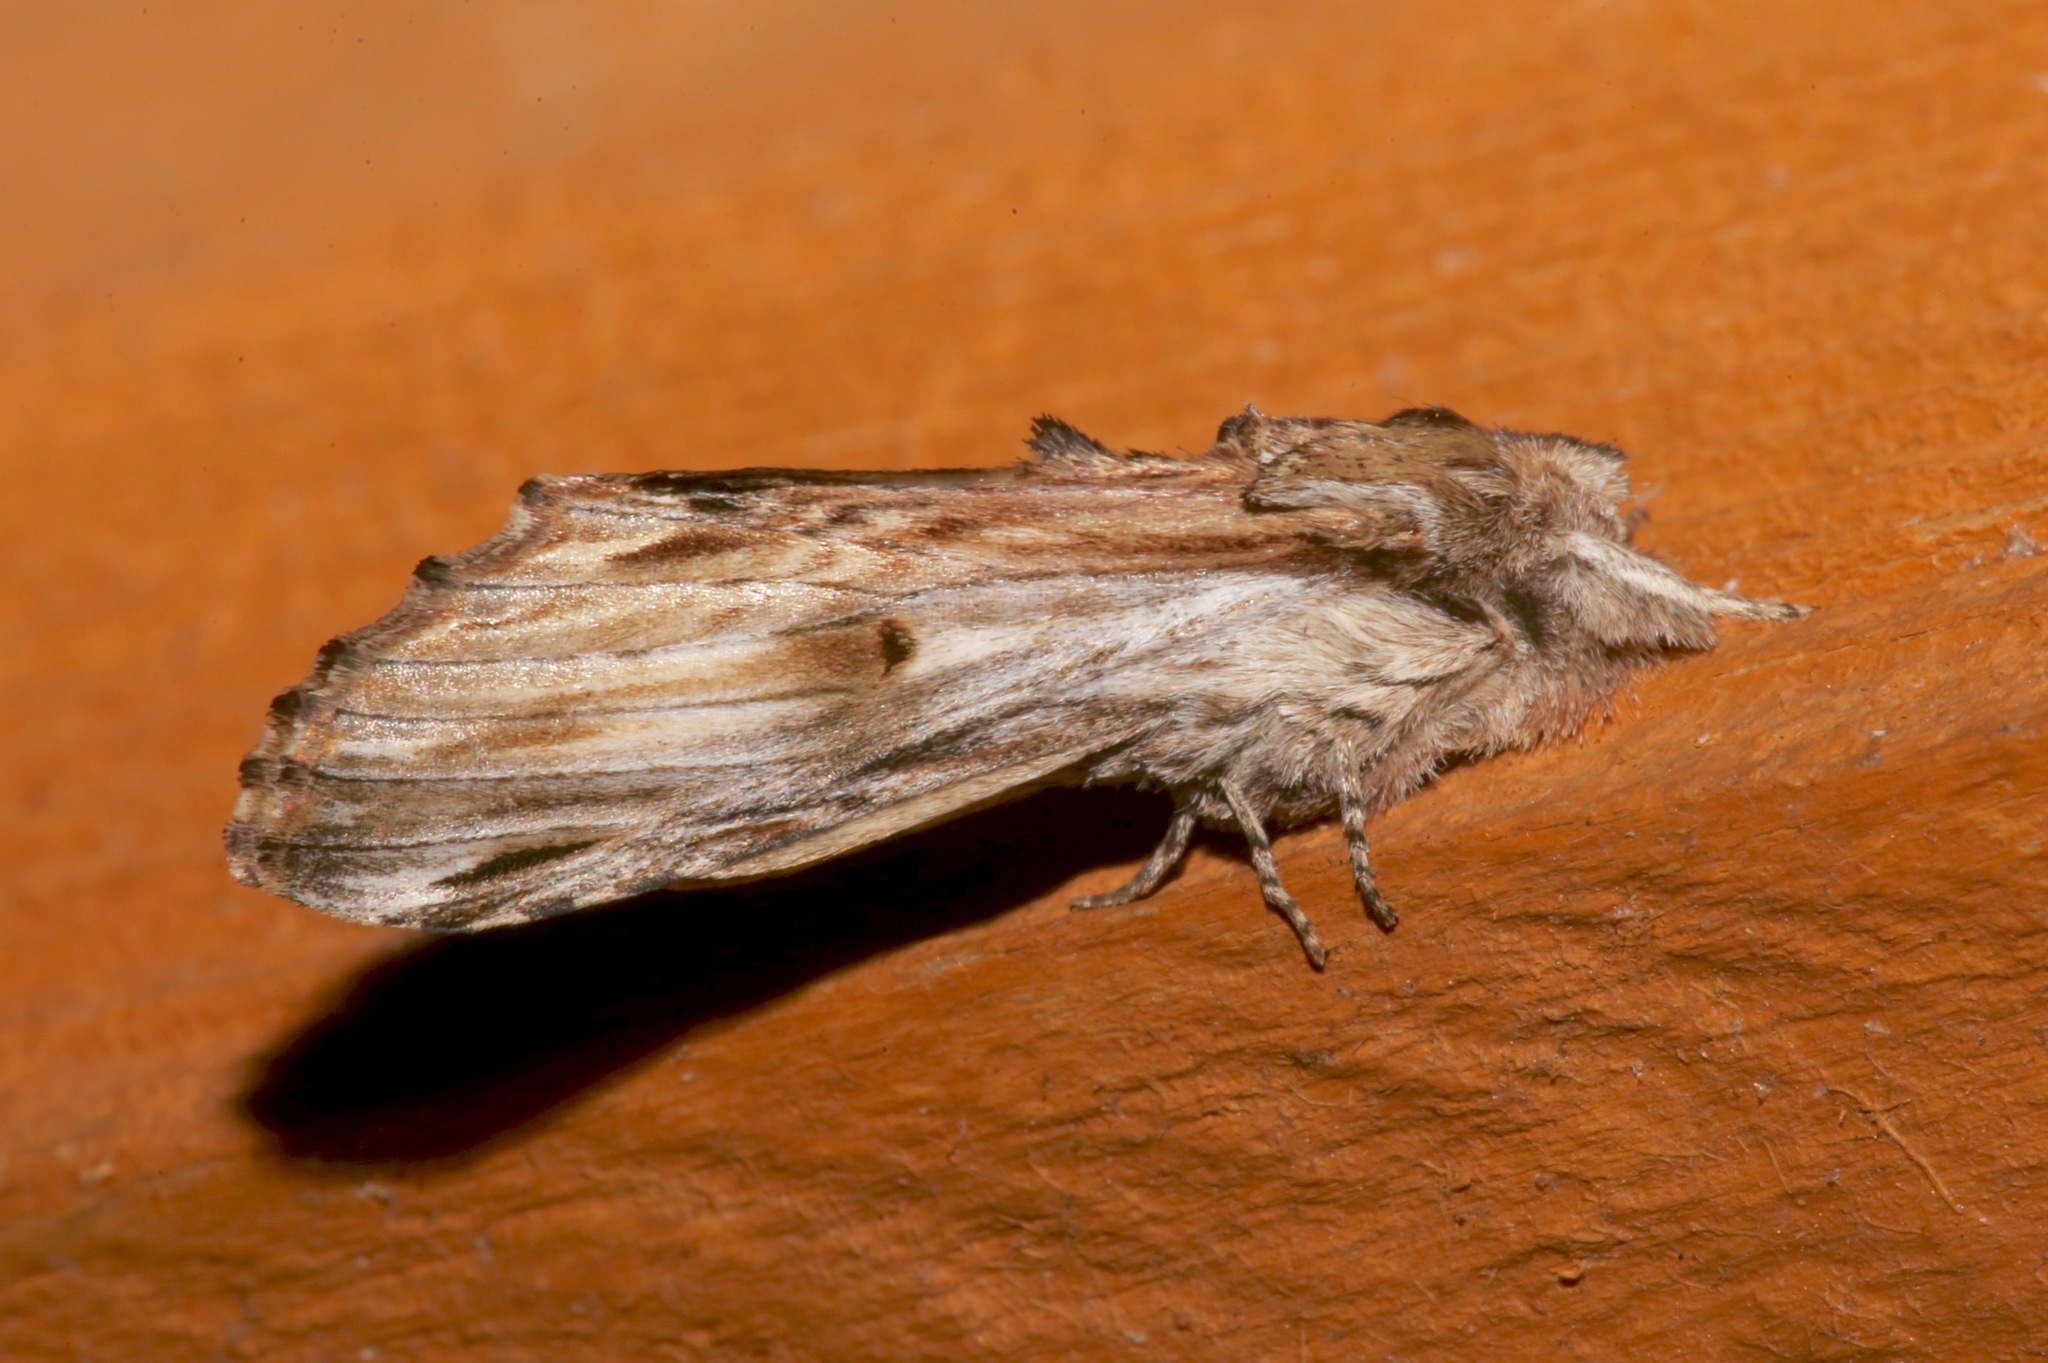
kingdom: Animalia
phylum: Arthropoda
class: Insecta
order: Lepidoptera
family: Notodontidae
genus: Oligocentria
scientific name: Oligocentria Ianassa lignicolor
